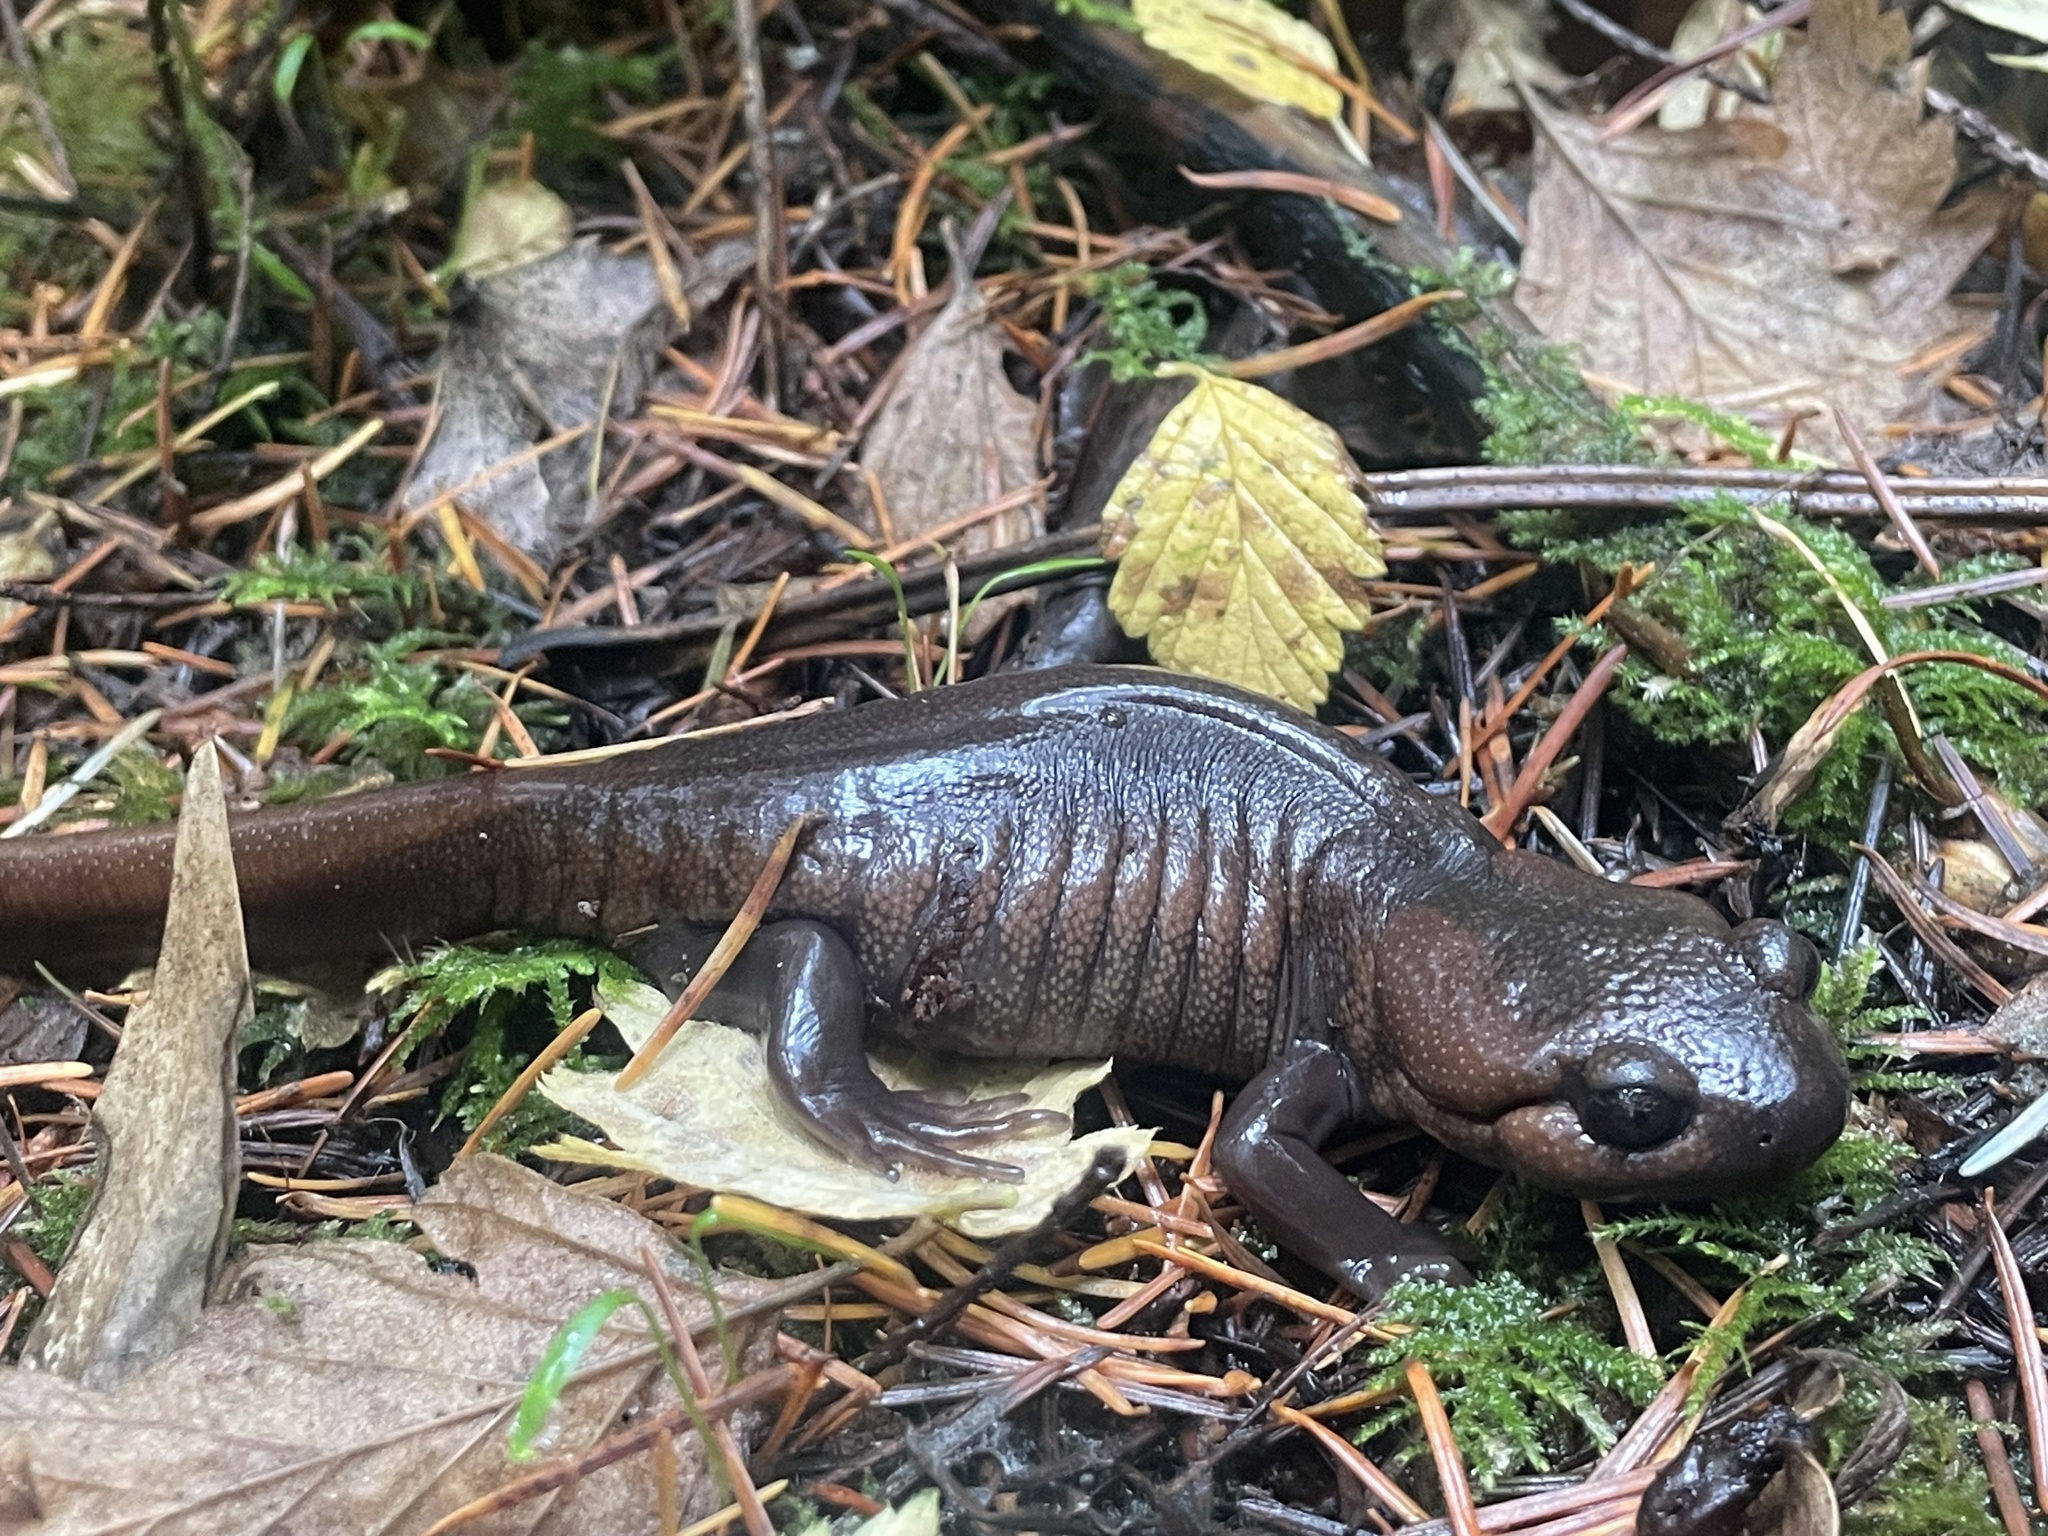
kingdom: Animalia
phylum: Chordata
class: Amphibia
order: Caudata
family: Ambystomatidae
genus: Ambystoma
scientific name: Ambystoma gracile
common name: Northwestern salamander
